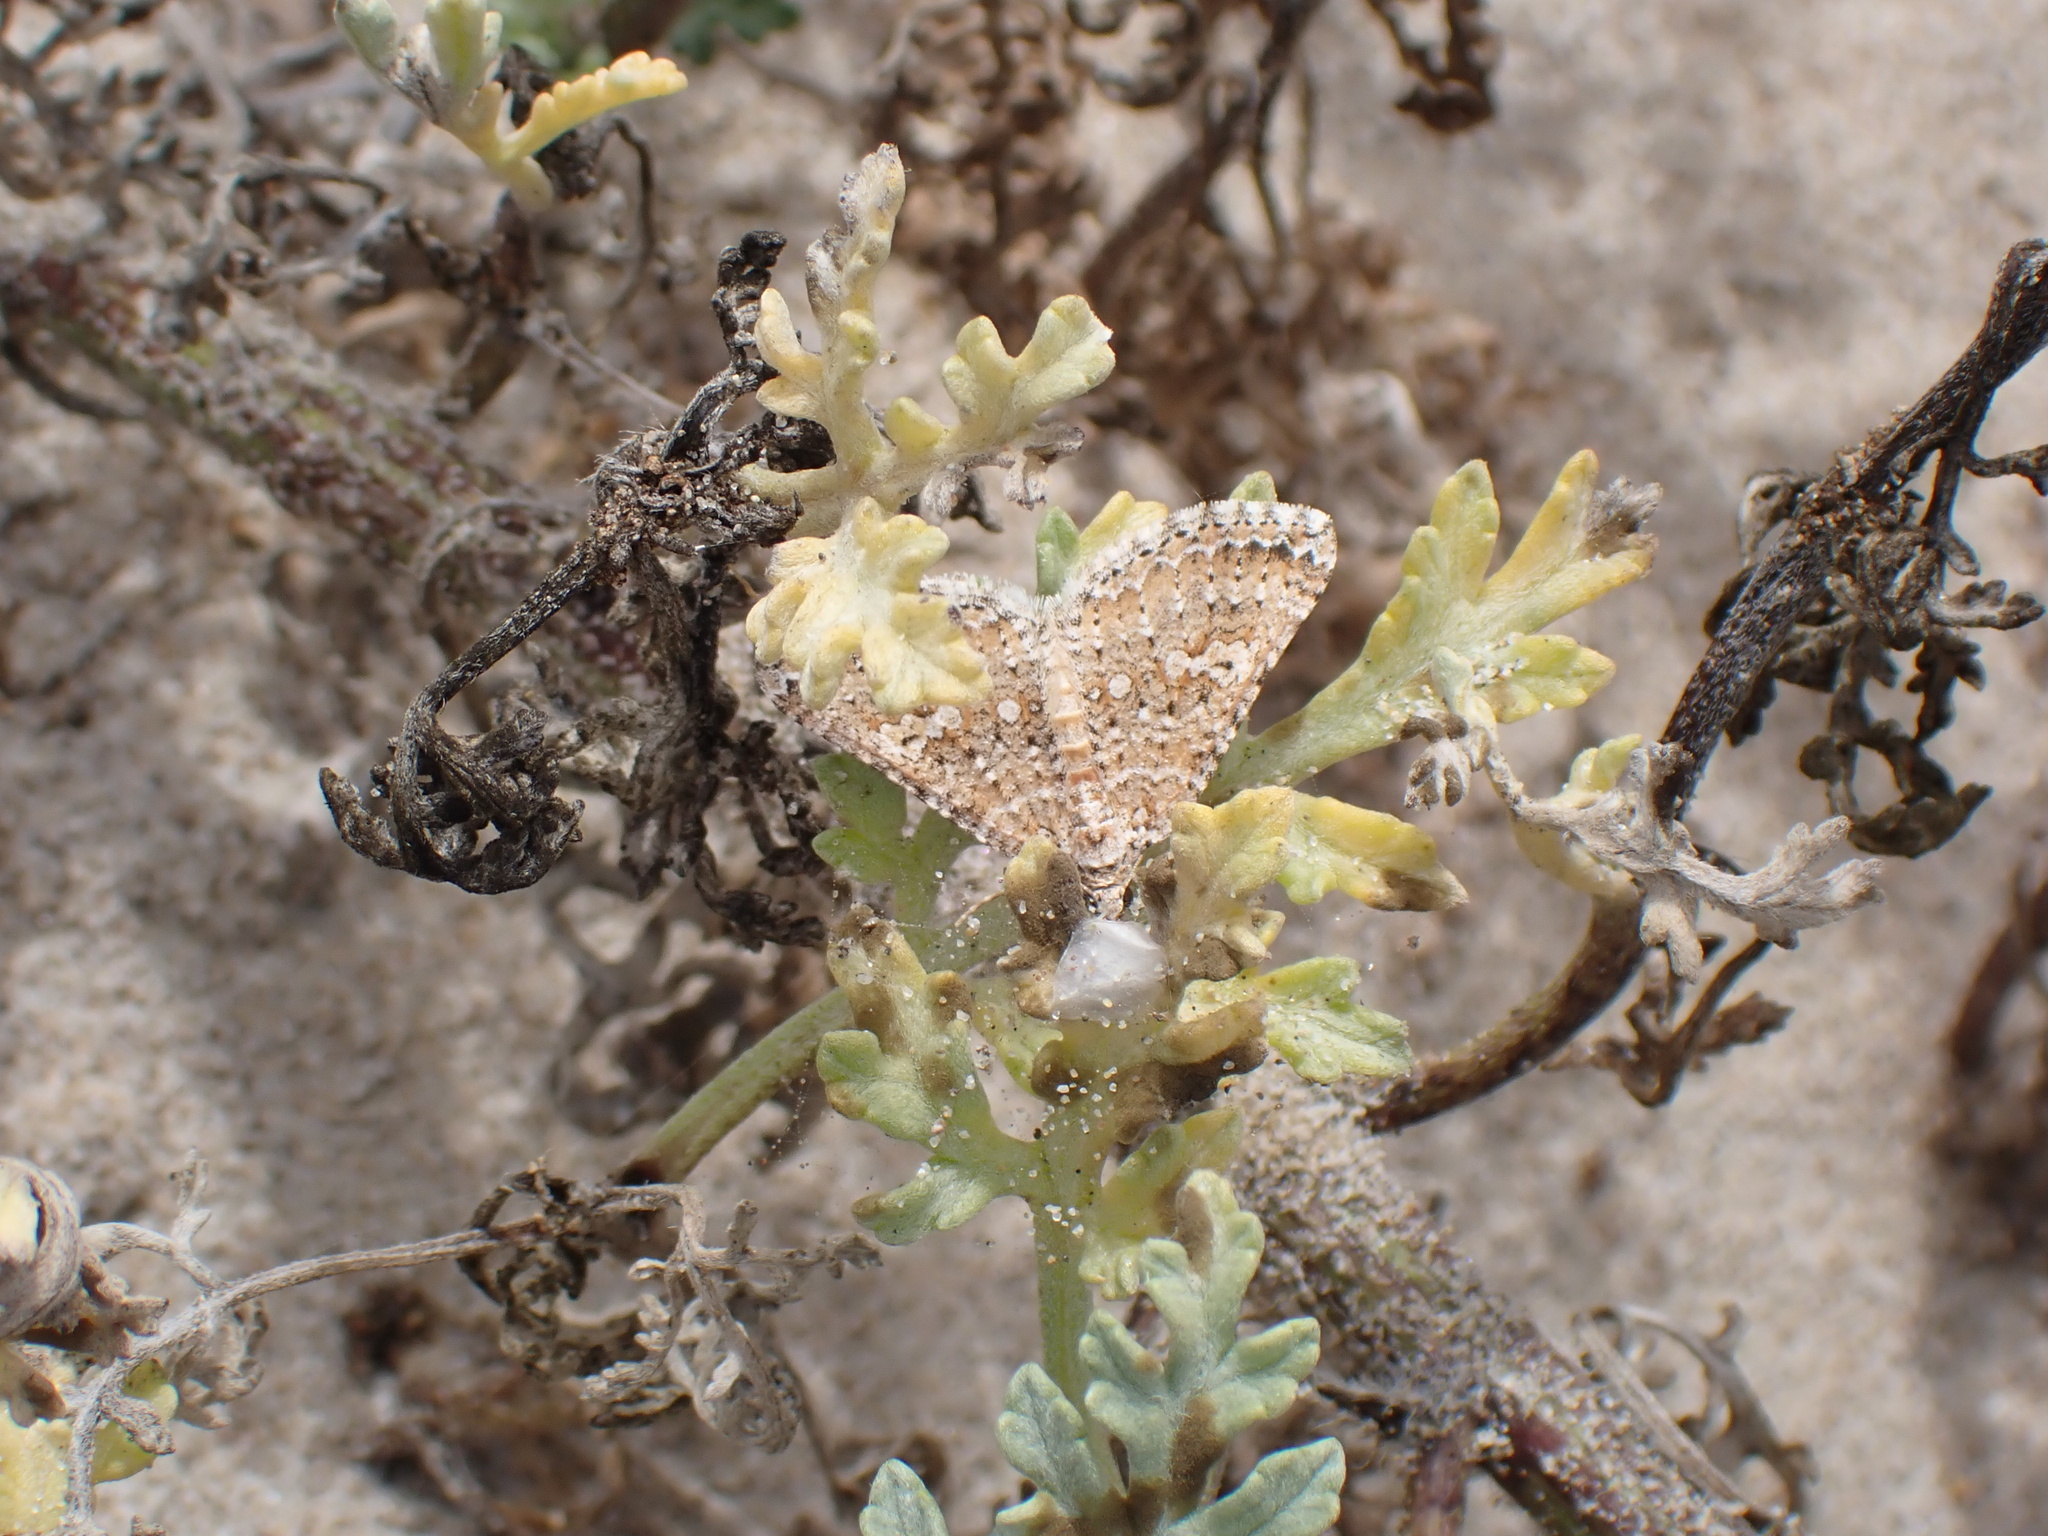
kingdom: Animalia
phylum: Arthropoda
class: Insecta
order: Lepidoptera
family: Geometridae
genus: Euphyia
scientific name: Euphyia implicata
